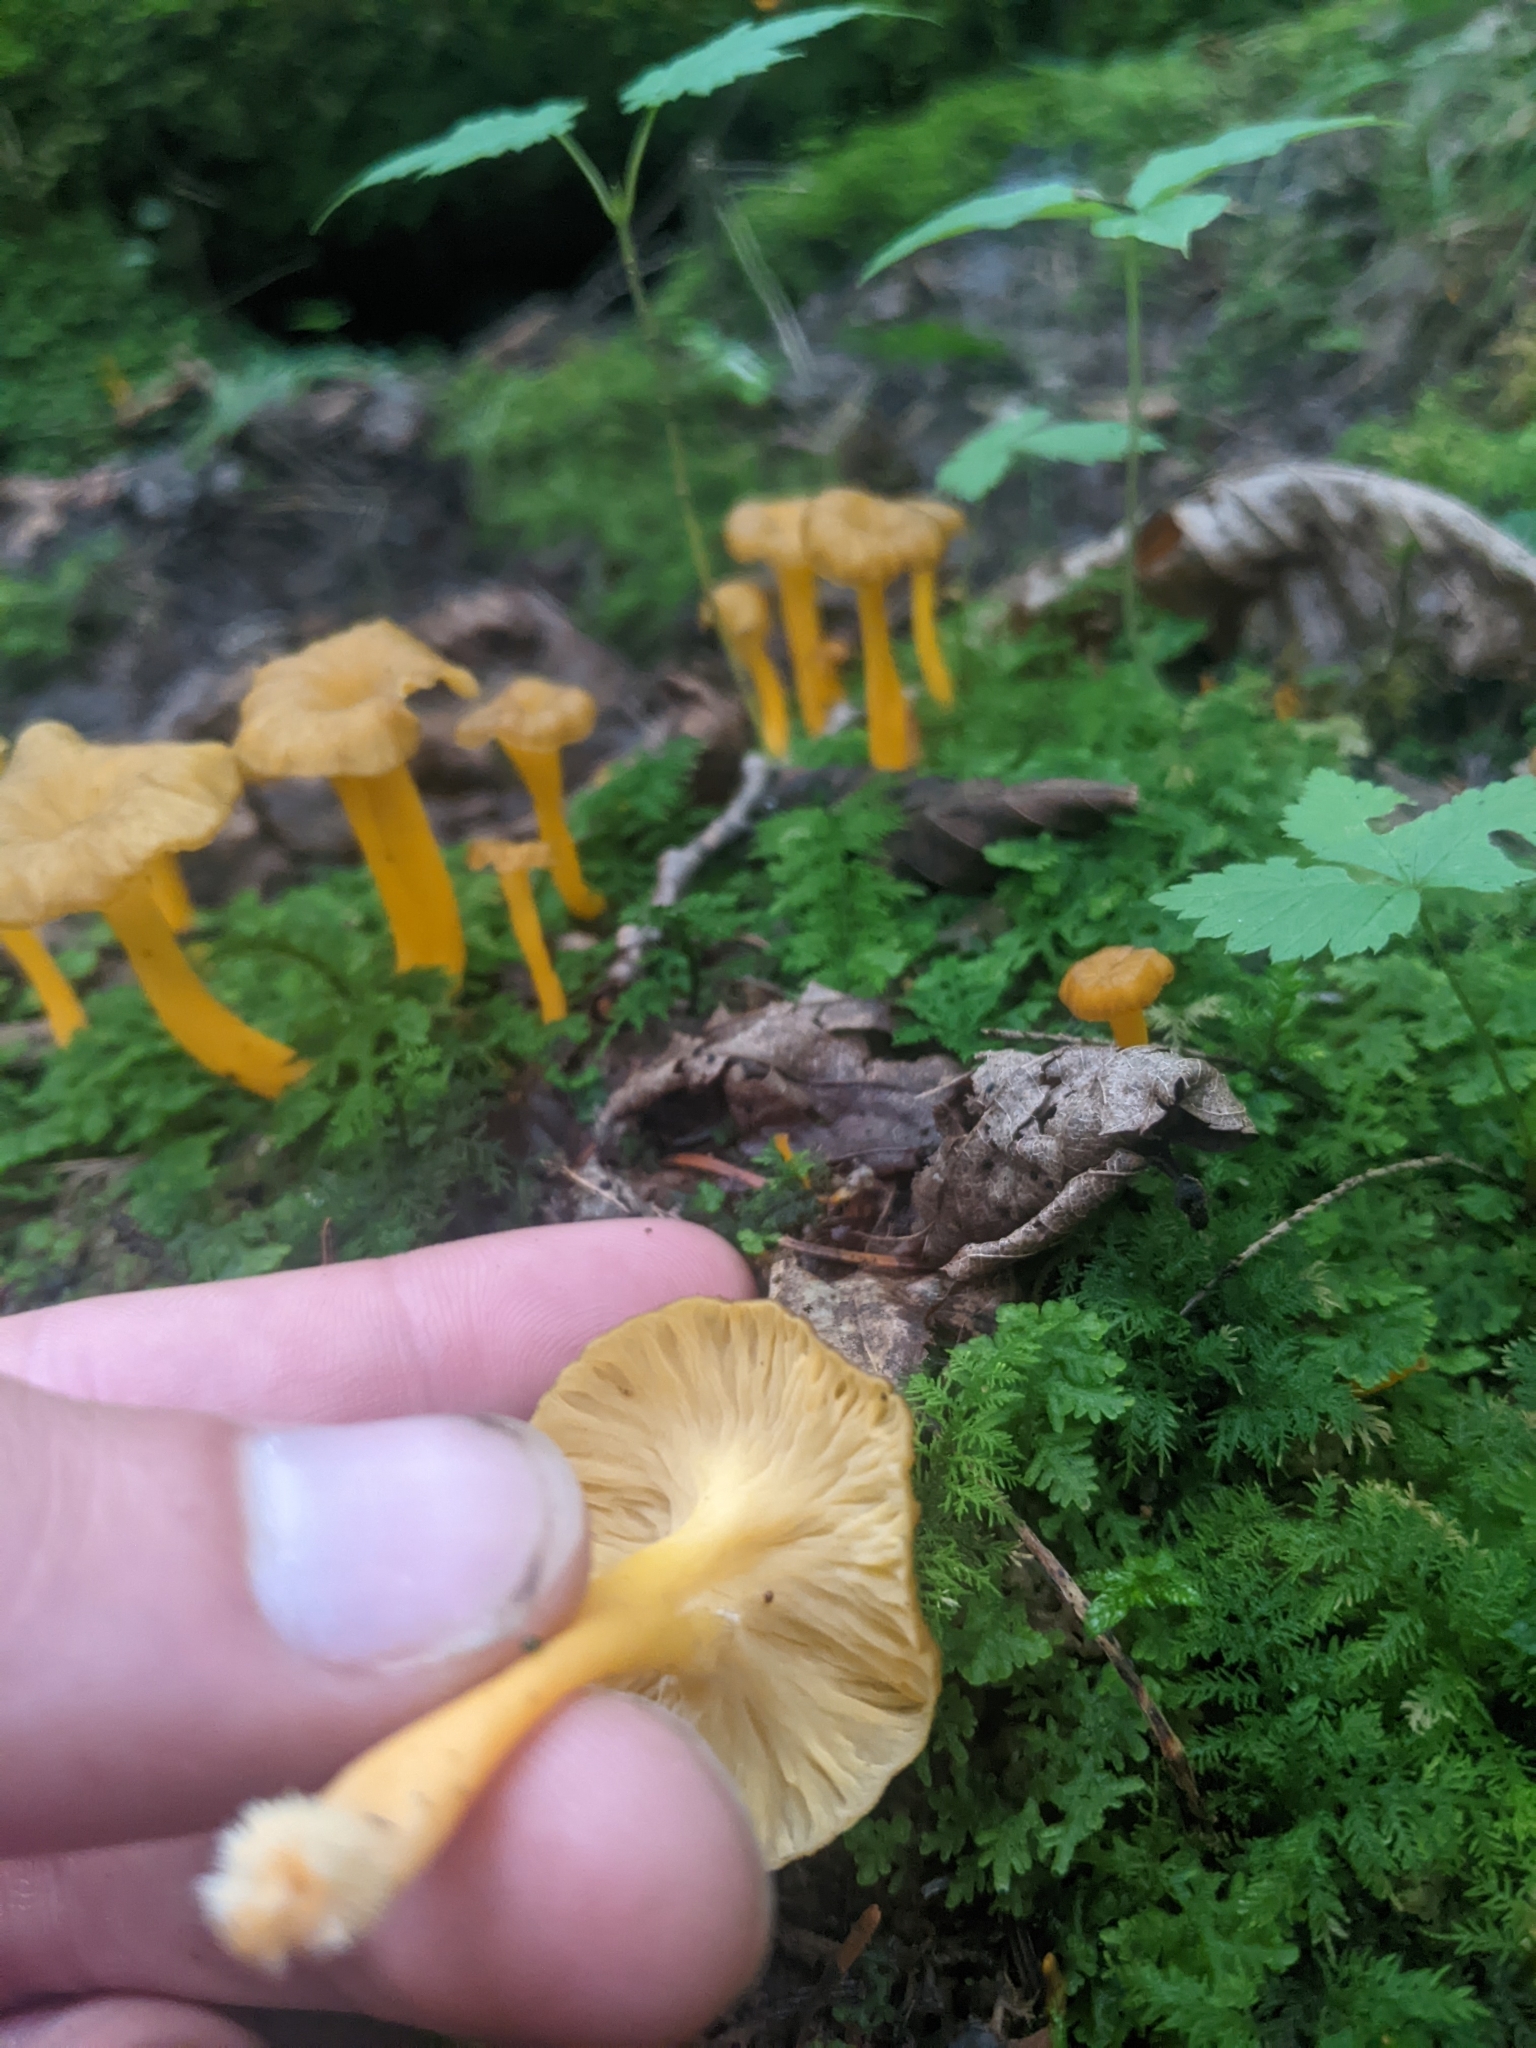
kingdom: Fungi
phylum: Basidiomycota
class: Agaricomycetes
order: Cantharellales
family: Hydnaceae
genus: Craterellus
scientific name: Craterellus lutescens
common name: Golden chanterelle
